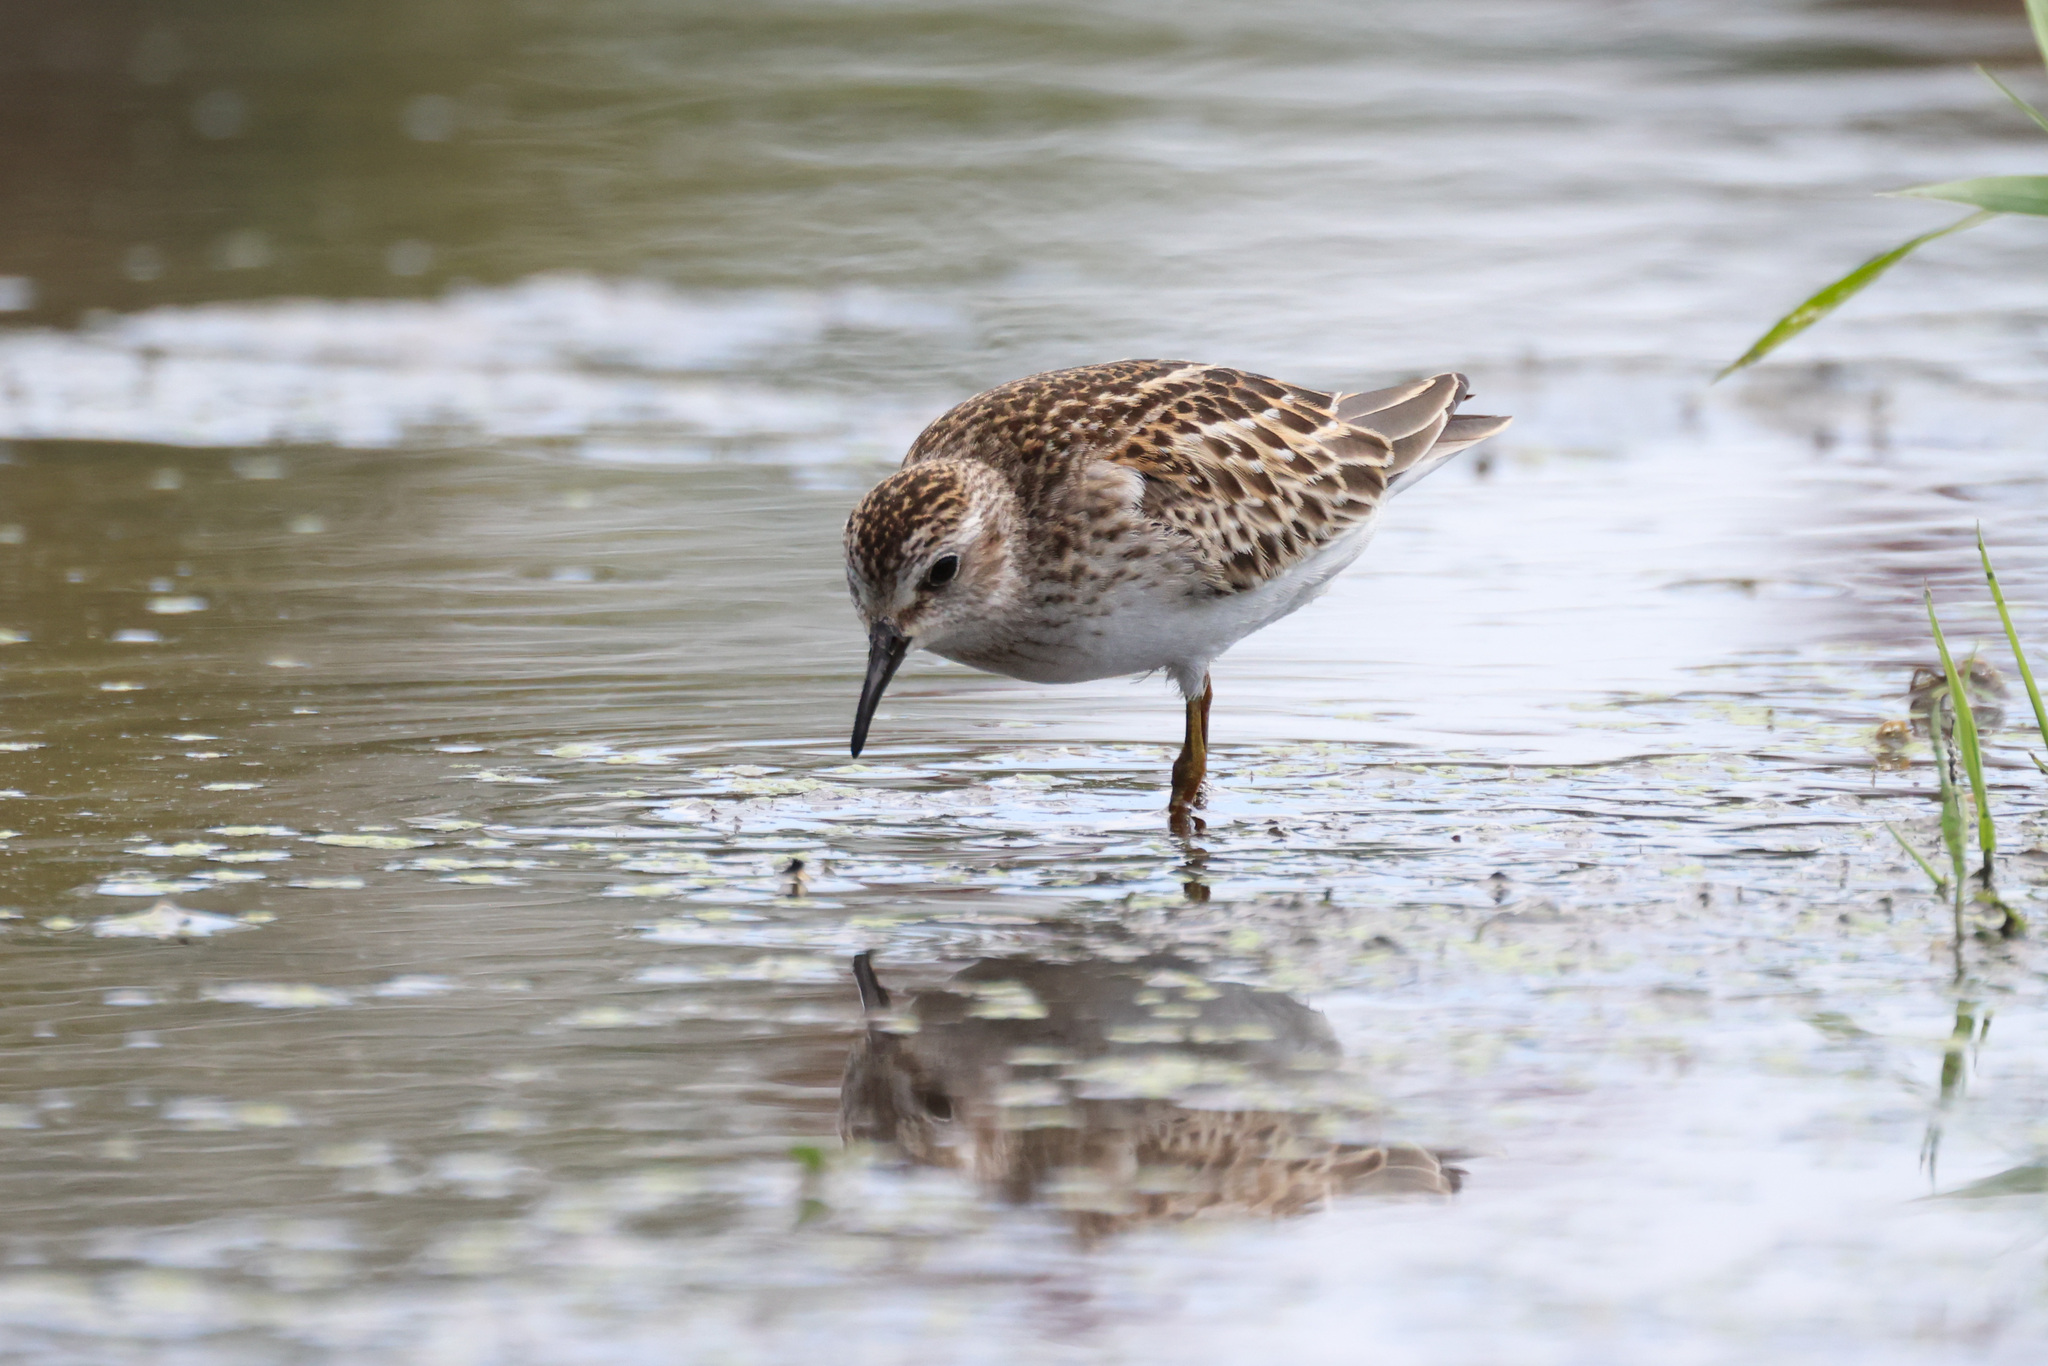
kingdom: Animalia
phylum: Chordata
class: Aves
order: Charadriiformes
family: Scolopacidae
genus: Calidris
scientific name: Calidris minutilla
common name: Least sandpiper
